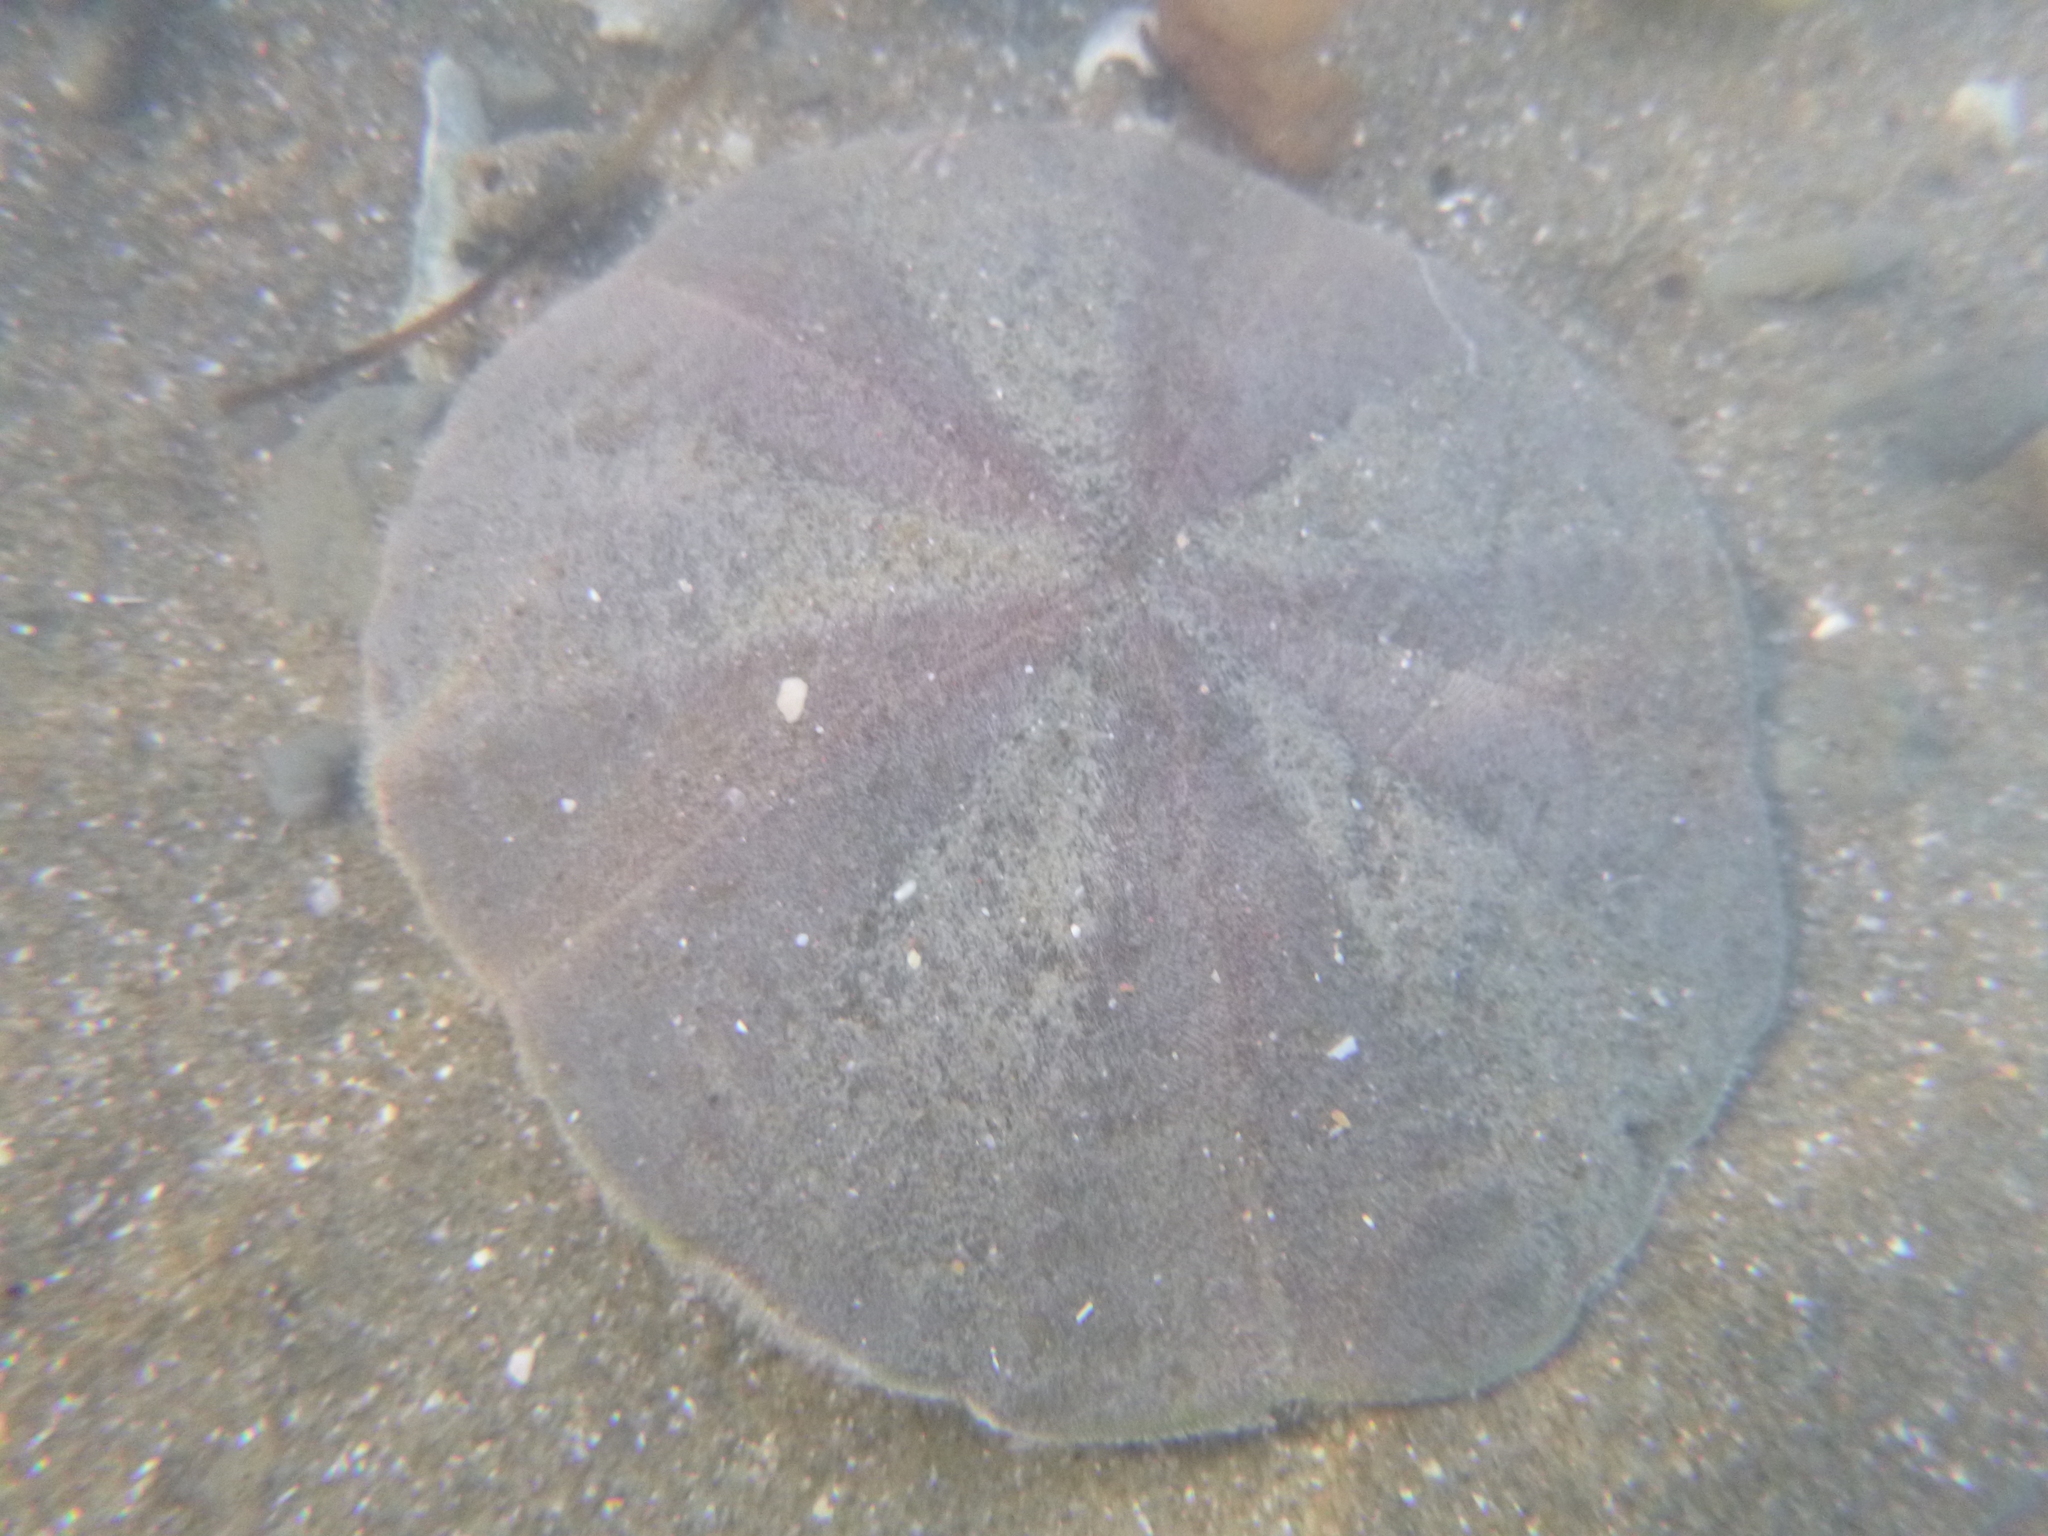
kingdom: Animalia
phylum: Echinodermata
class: Echinoidea
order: Clypeasteroida
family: Clypeasteridae
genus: Fellaster
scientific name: Fellaster zelandiae
